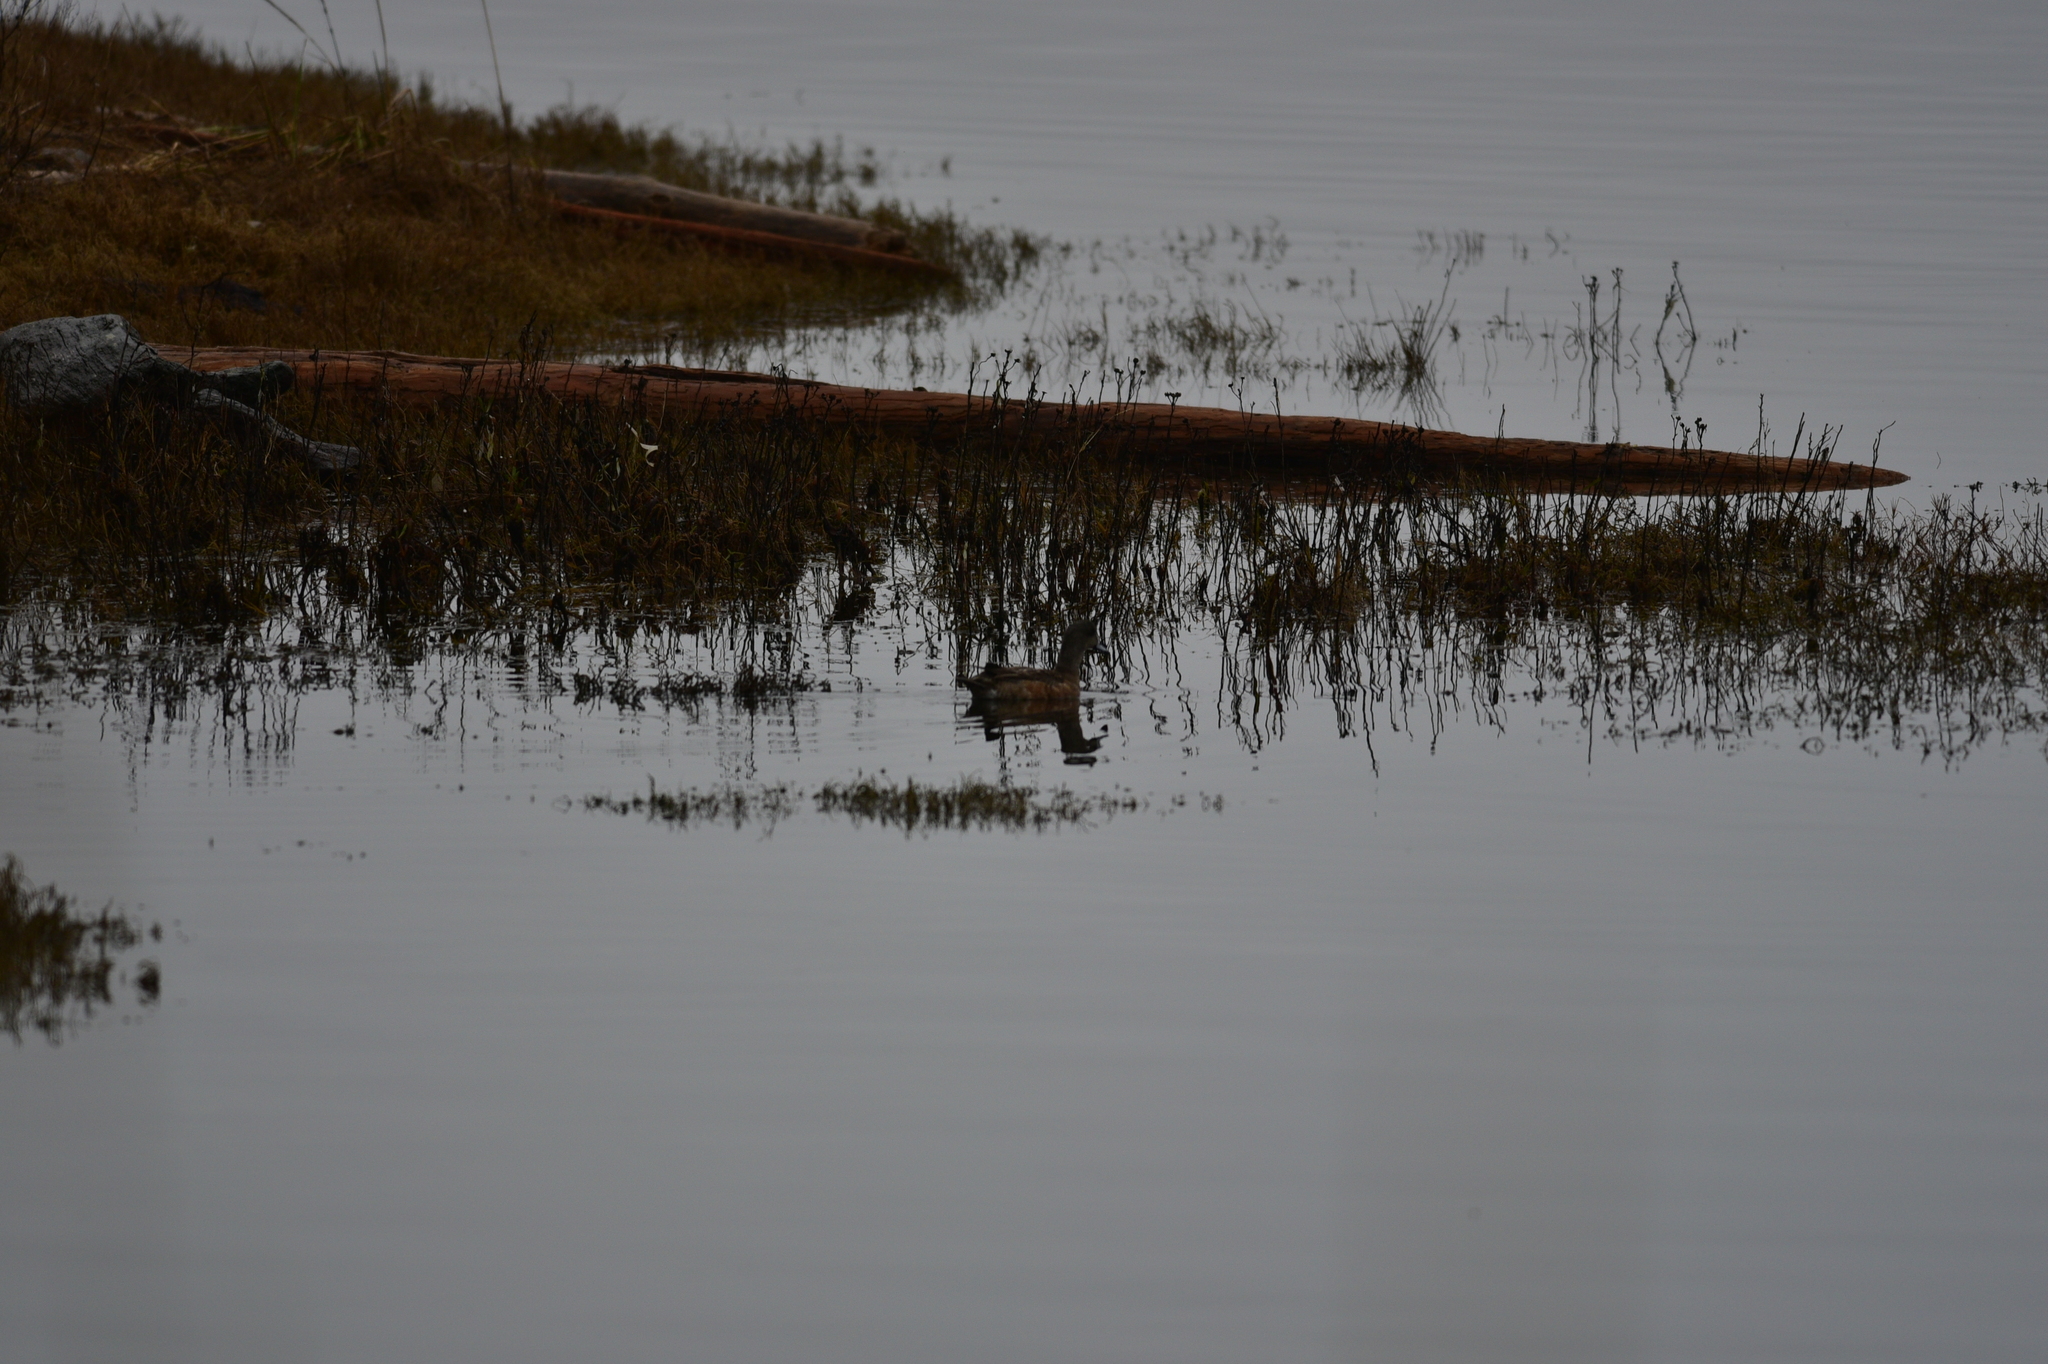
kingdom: Animalia
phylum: Chordata
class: Aves
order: Anseriformes
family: Anatidae
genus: Mareca
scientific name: Mareca americana
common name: American wigeon
